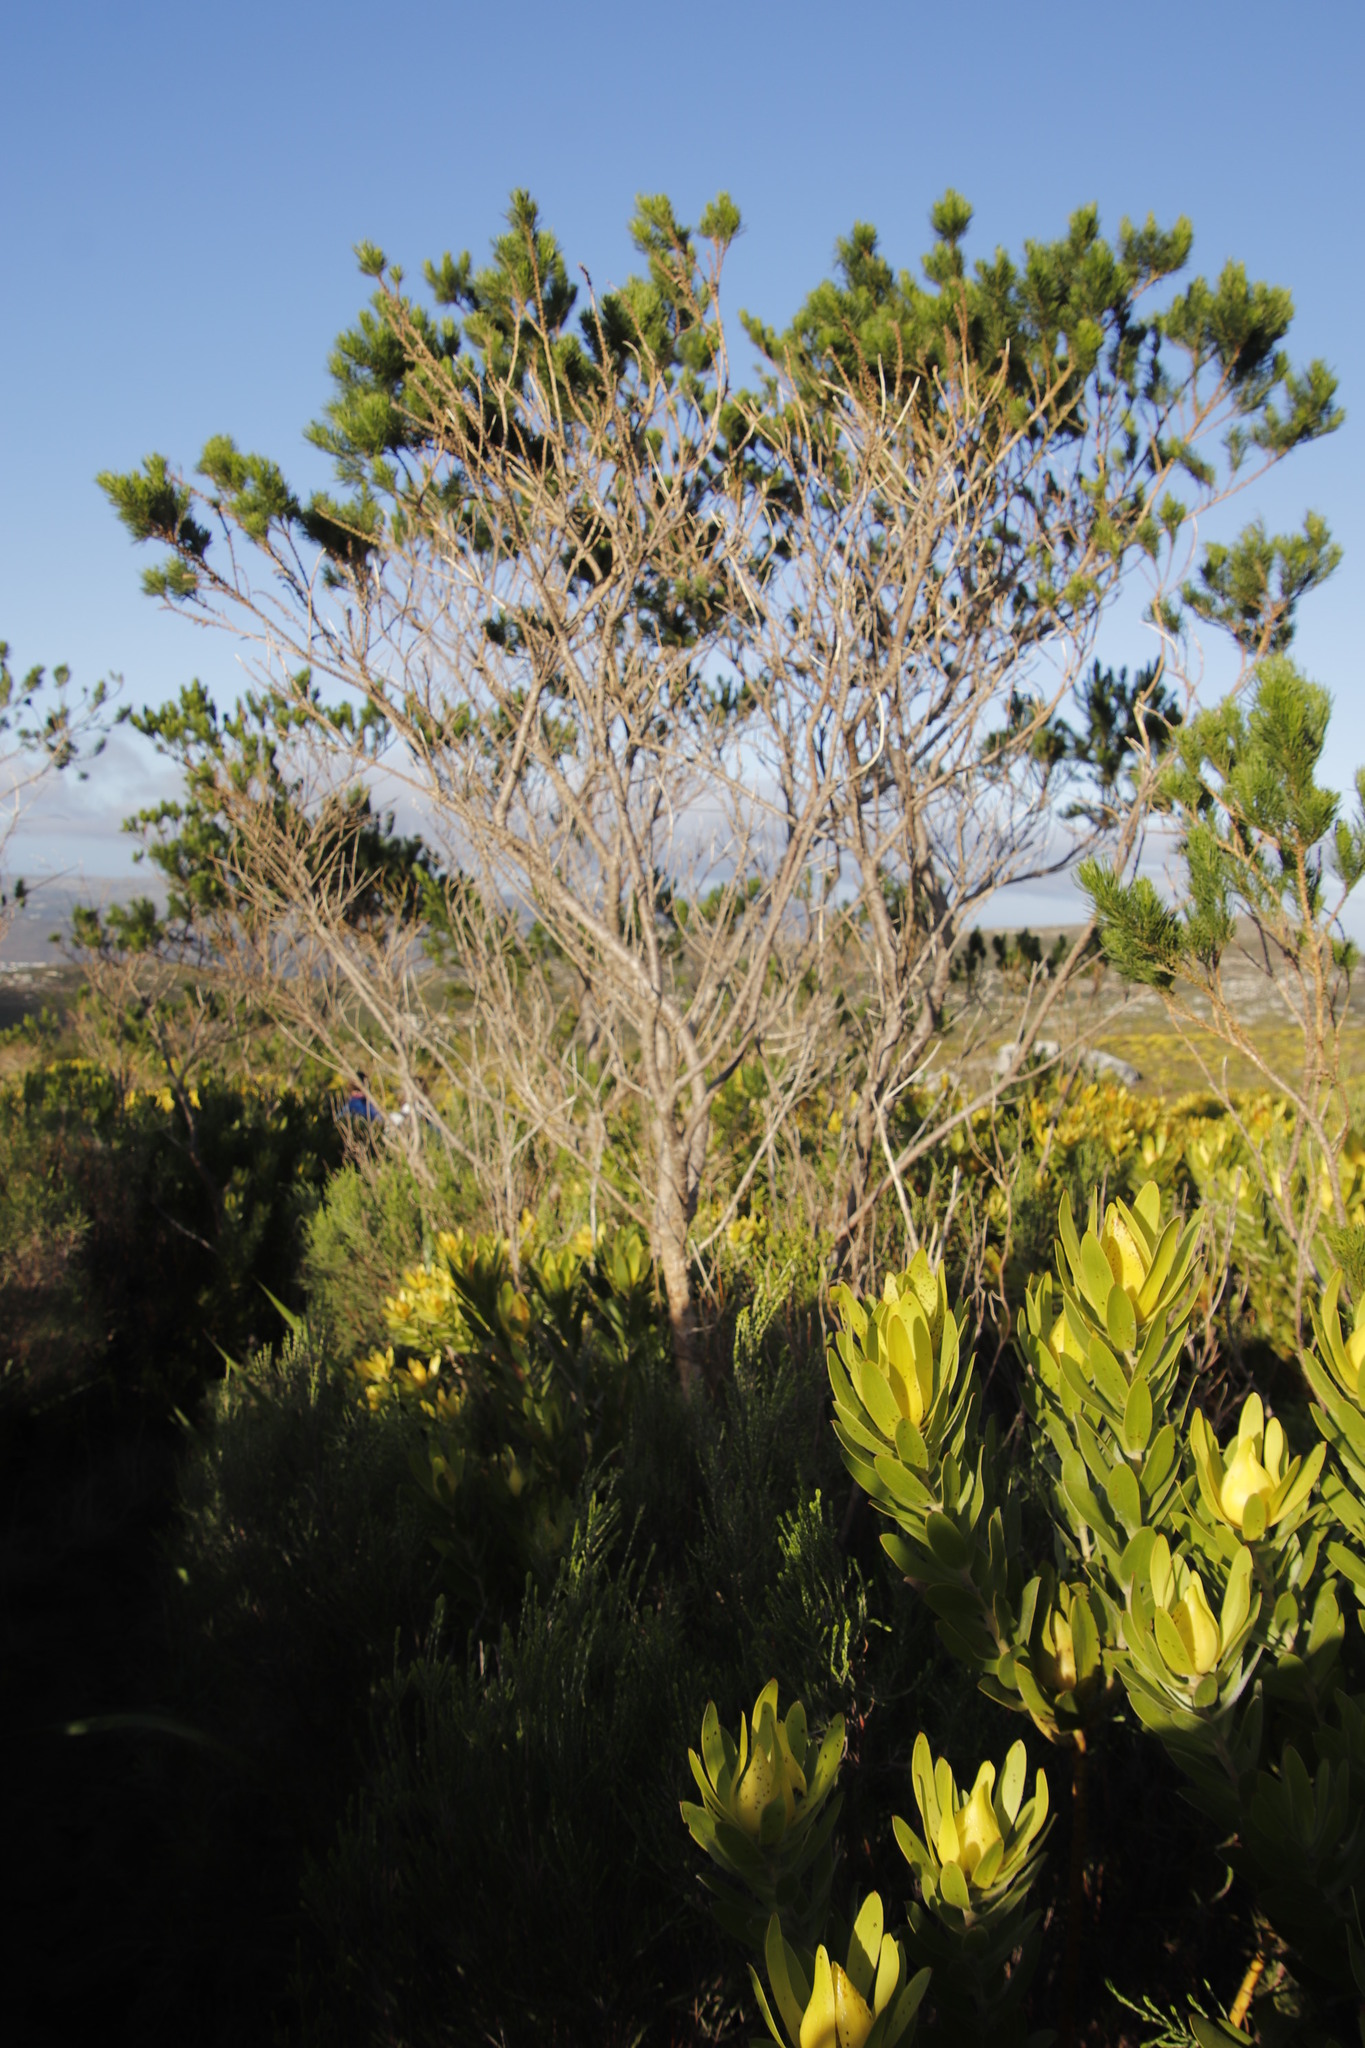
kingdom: Plantae
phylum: Tracheophyta
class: Magnoliopsida
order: Fabales
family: Fabaceae
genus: Psoralea
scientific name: Psoralea pinnata
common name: African scurfpea
